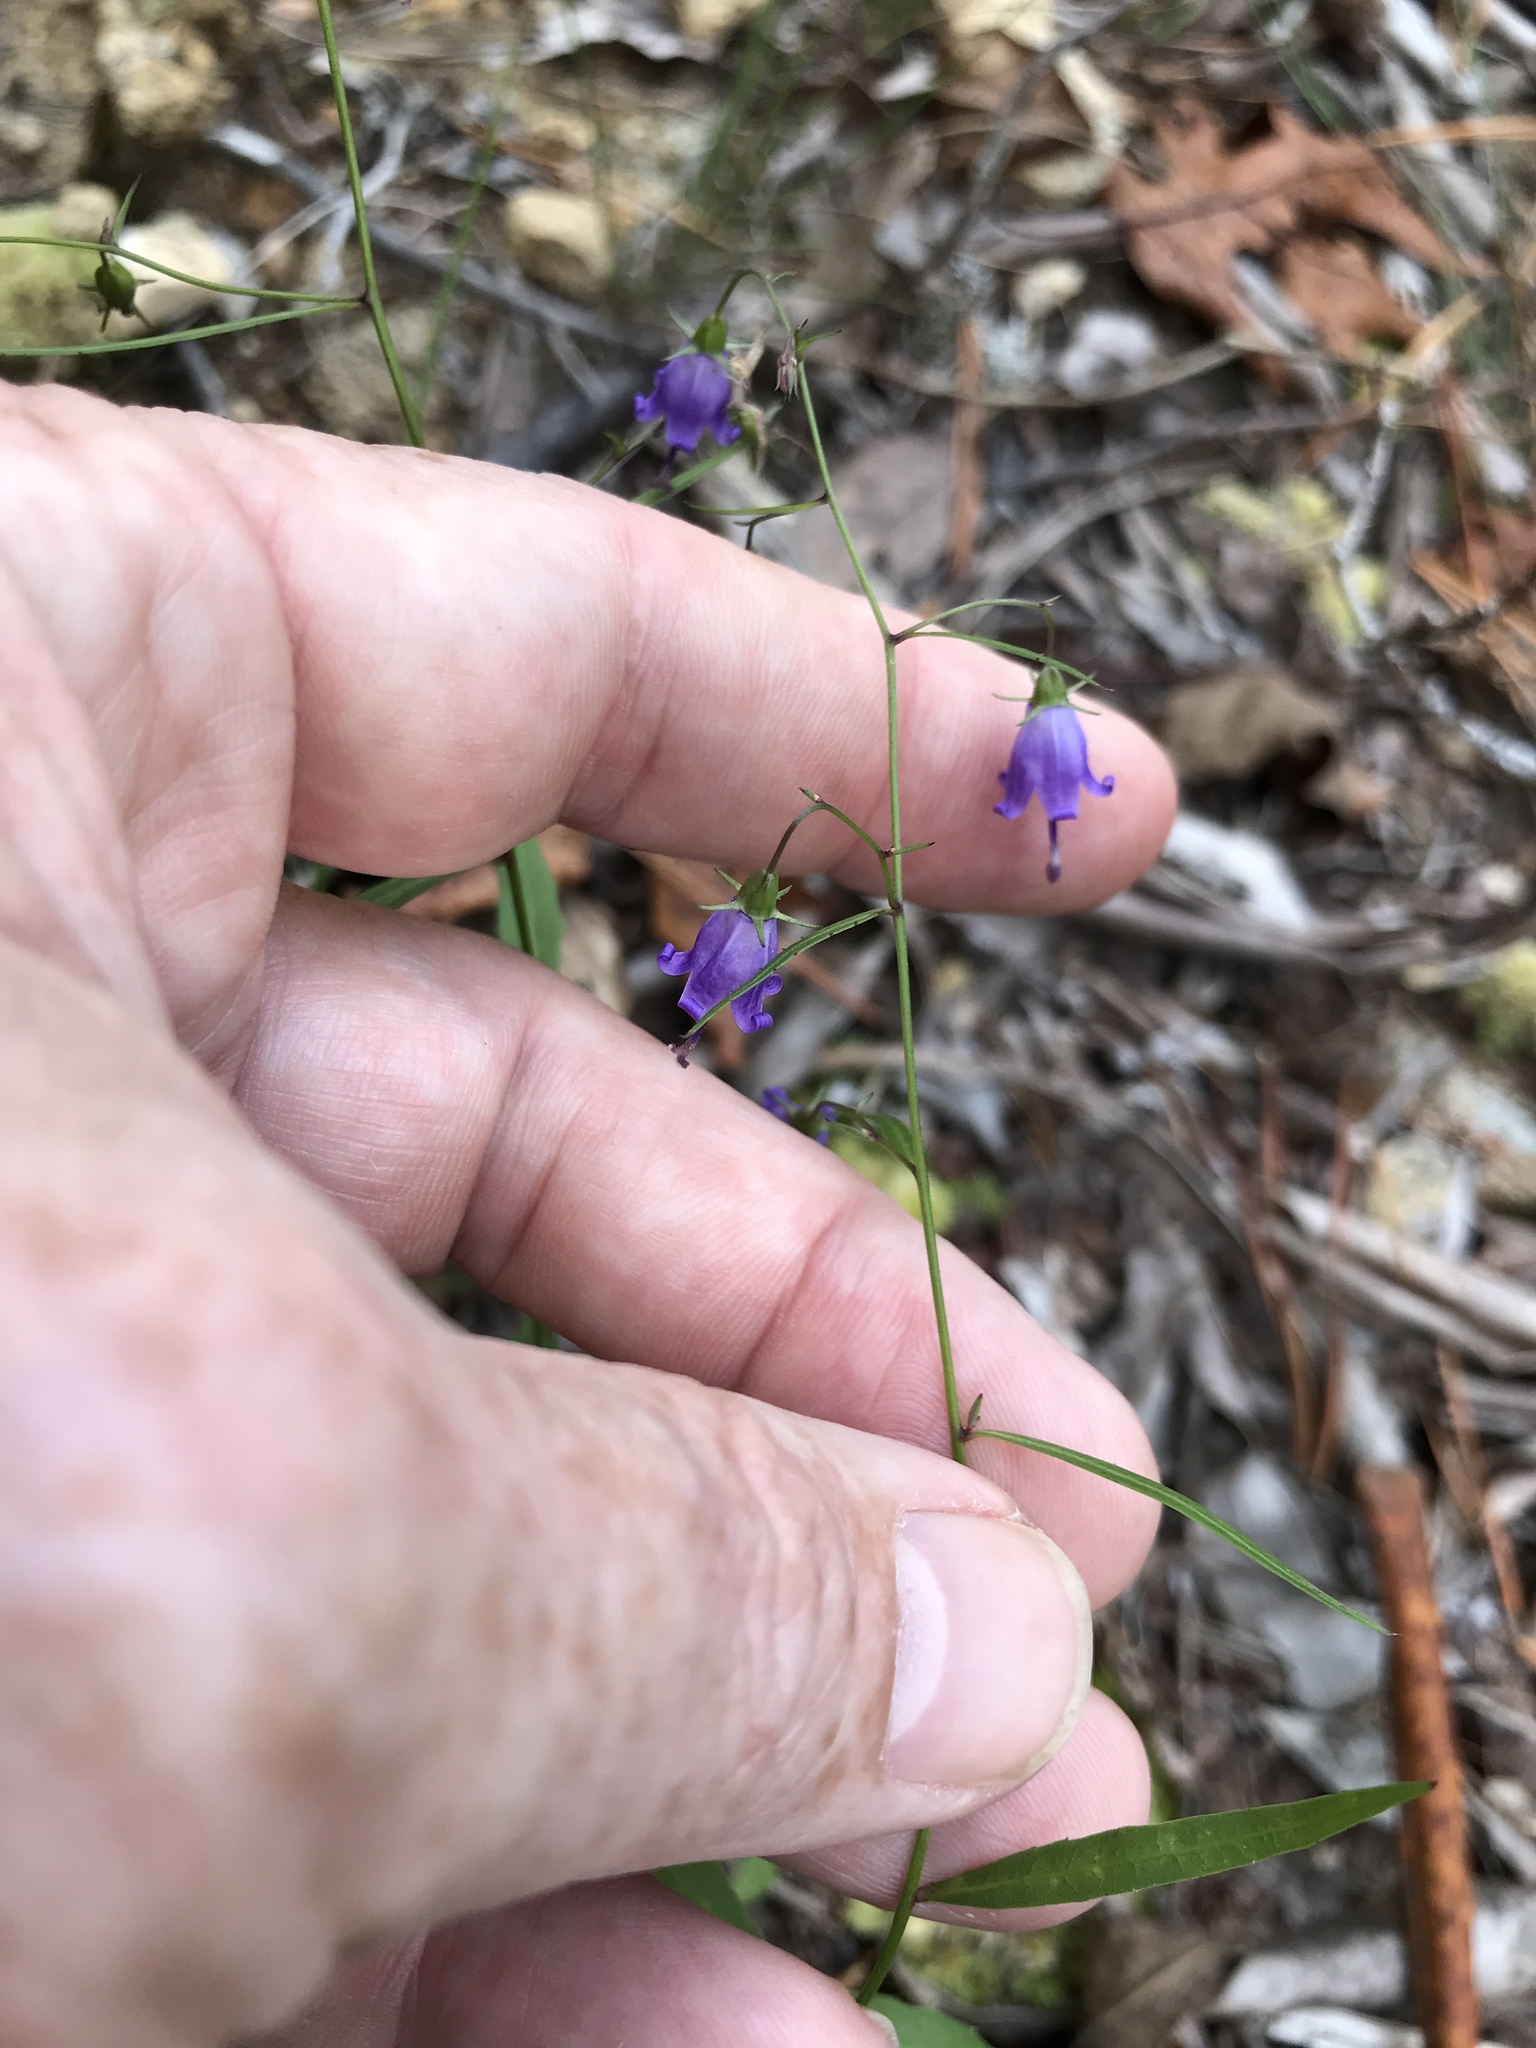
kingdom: Plantae
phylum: Tracheophyta
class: Magnoliopsida
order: Asterales
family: Campanulaceae
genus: Campanula
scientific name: Campanula divaricata
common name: Appalachian bellflower
